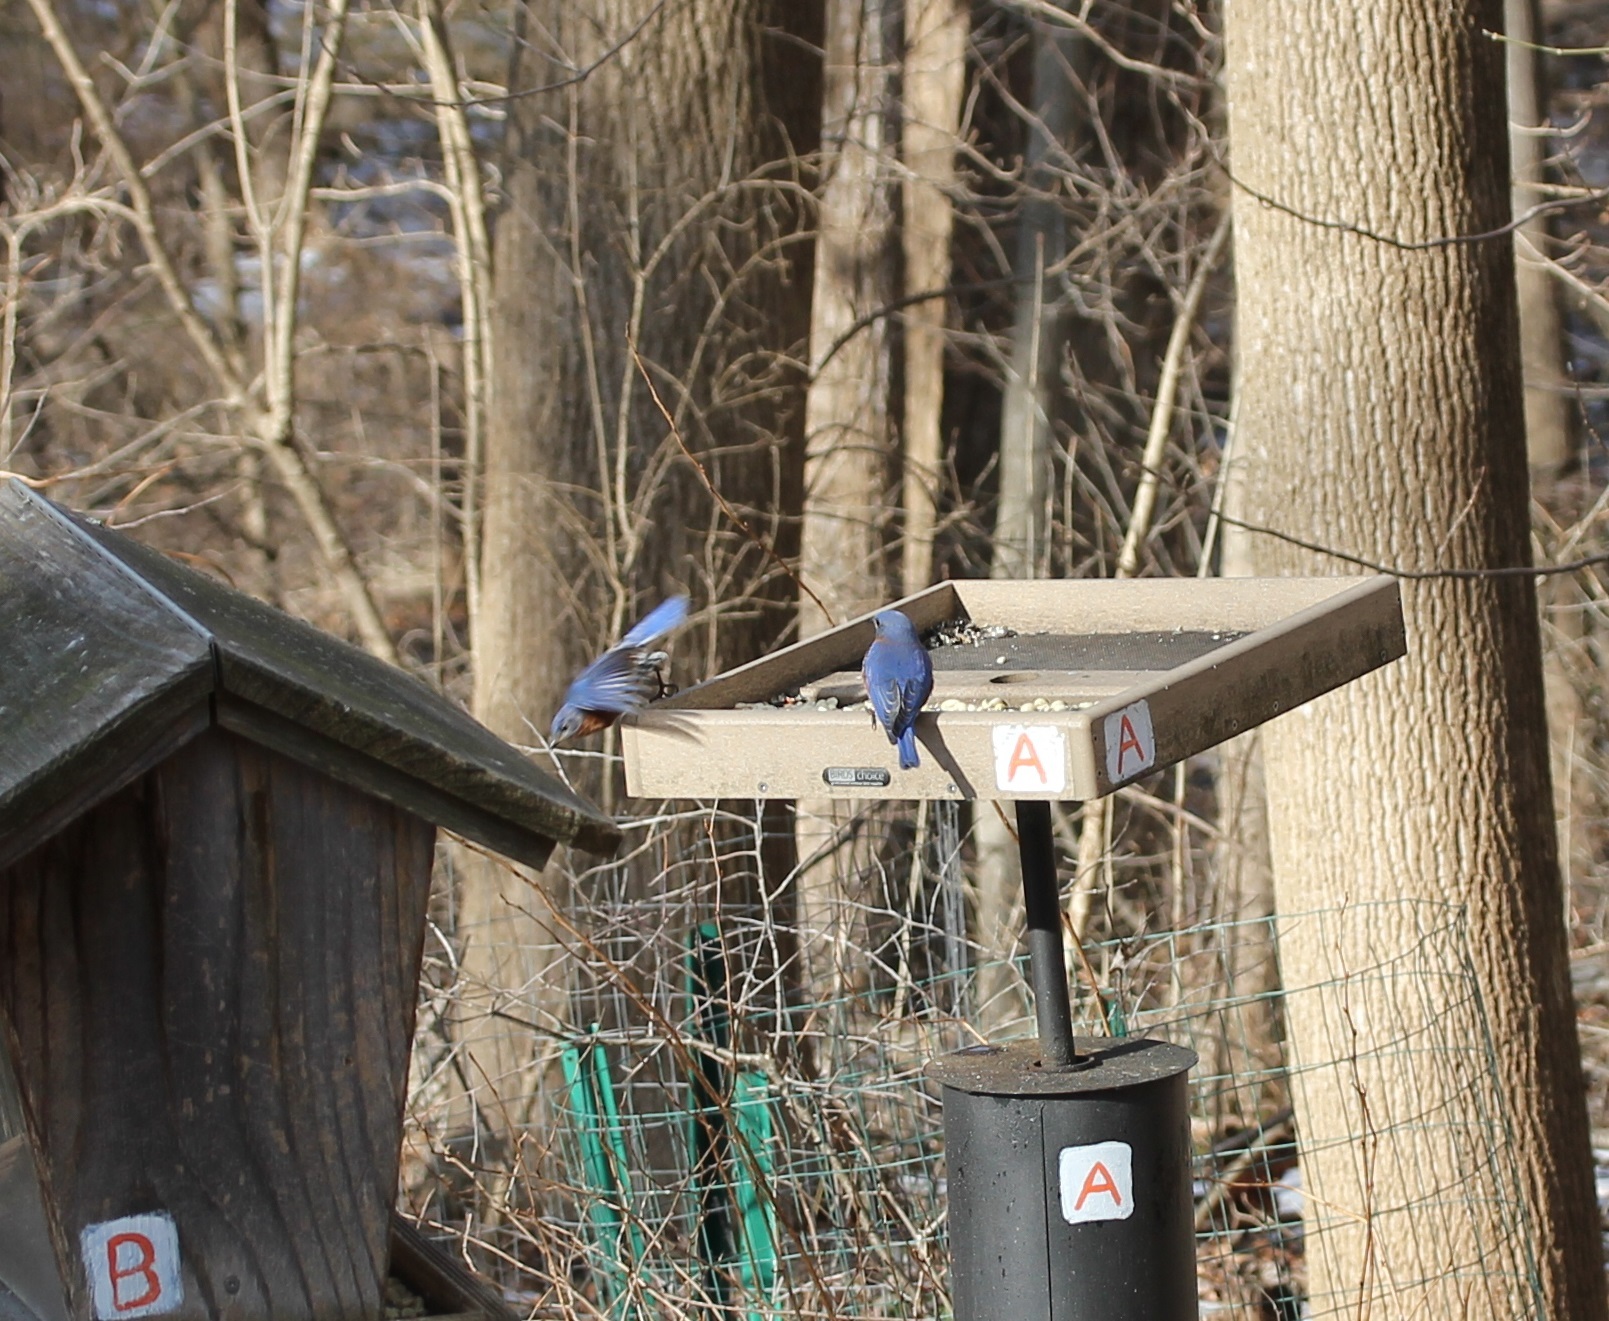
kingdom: Animalia
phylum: Chordata
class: Aves
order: Passeriformes
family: Turdidae
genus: Sialia
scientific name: Sialia sialis
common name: Eastern bluebird
